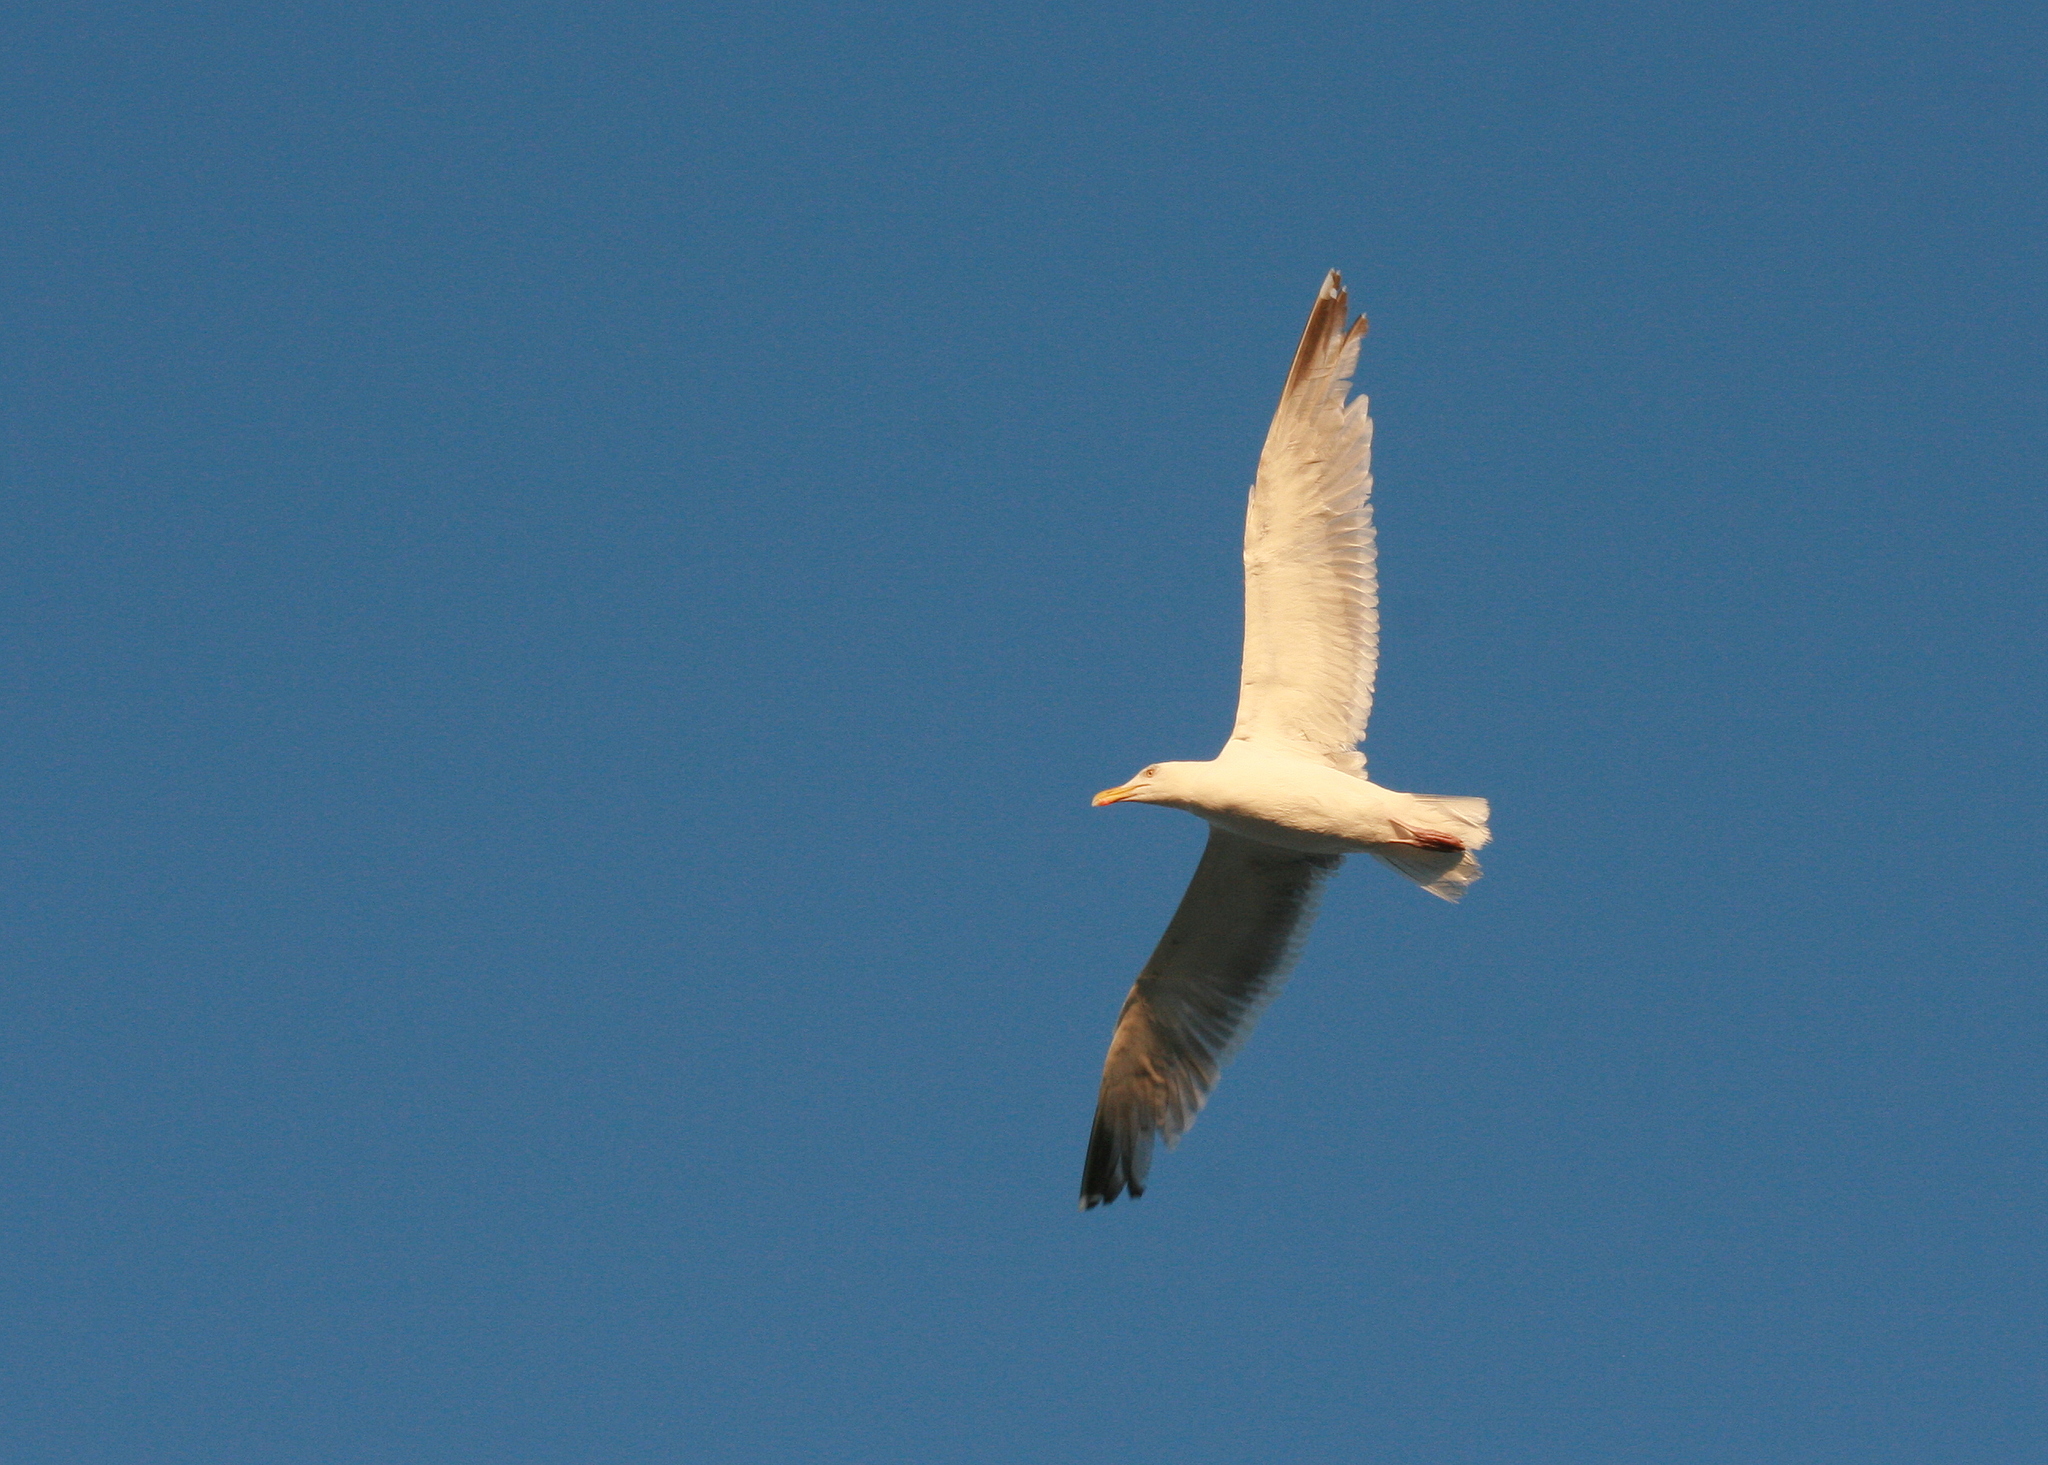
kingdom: Animalia
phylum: Chordata
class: Aves
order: Charadriiformes
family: Laridae
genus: Larus
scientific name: Larus argentatus
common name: Herring gull
